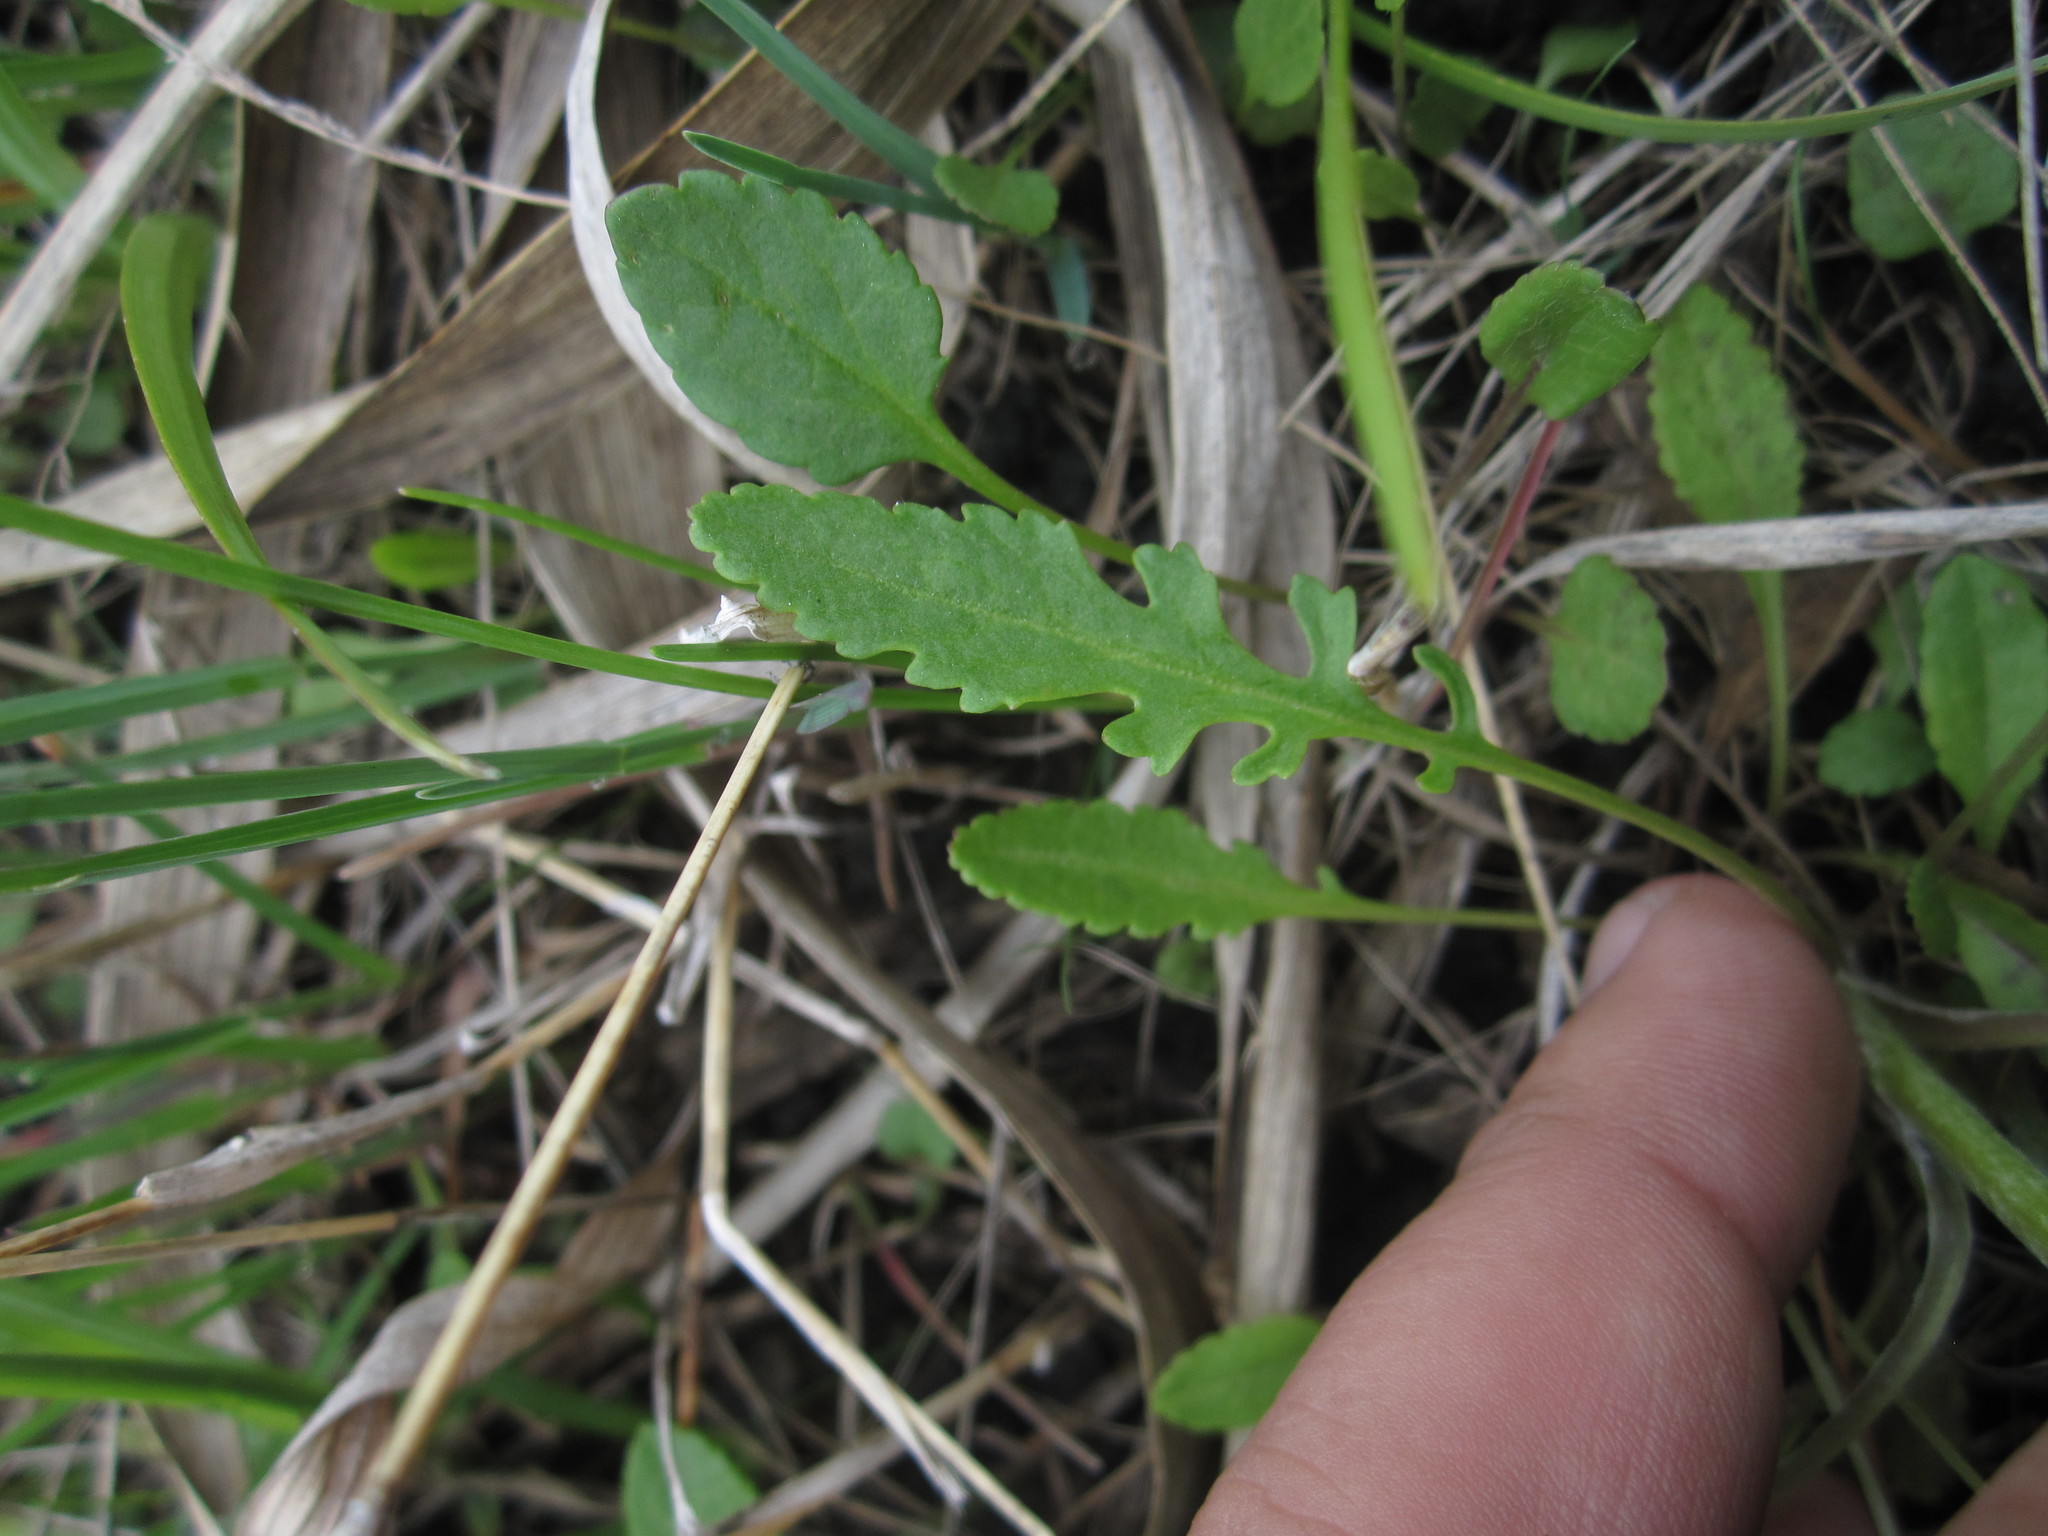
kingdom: Plantae
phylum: Tracheophyta
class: Magnoliopsida
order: Asterales
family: Asteraceae
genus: Packera
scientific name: Packera plattensis
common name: Prairie groundsel
